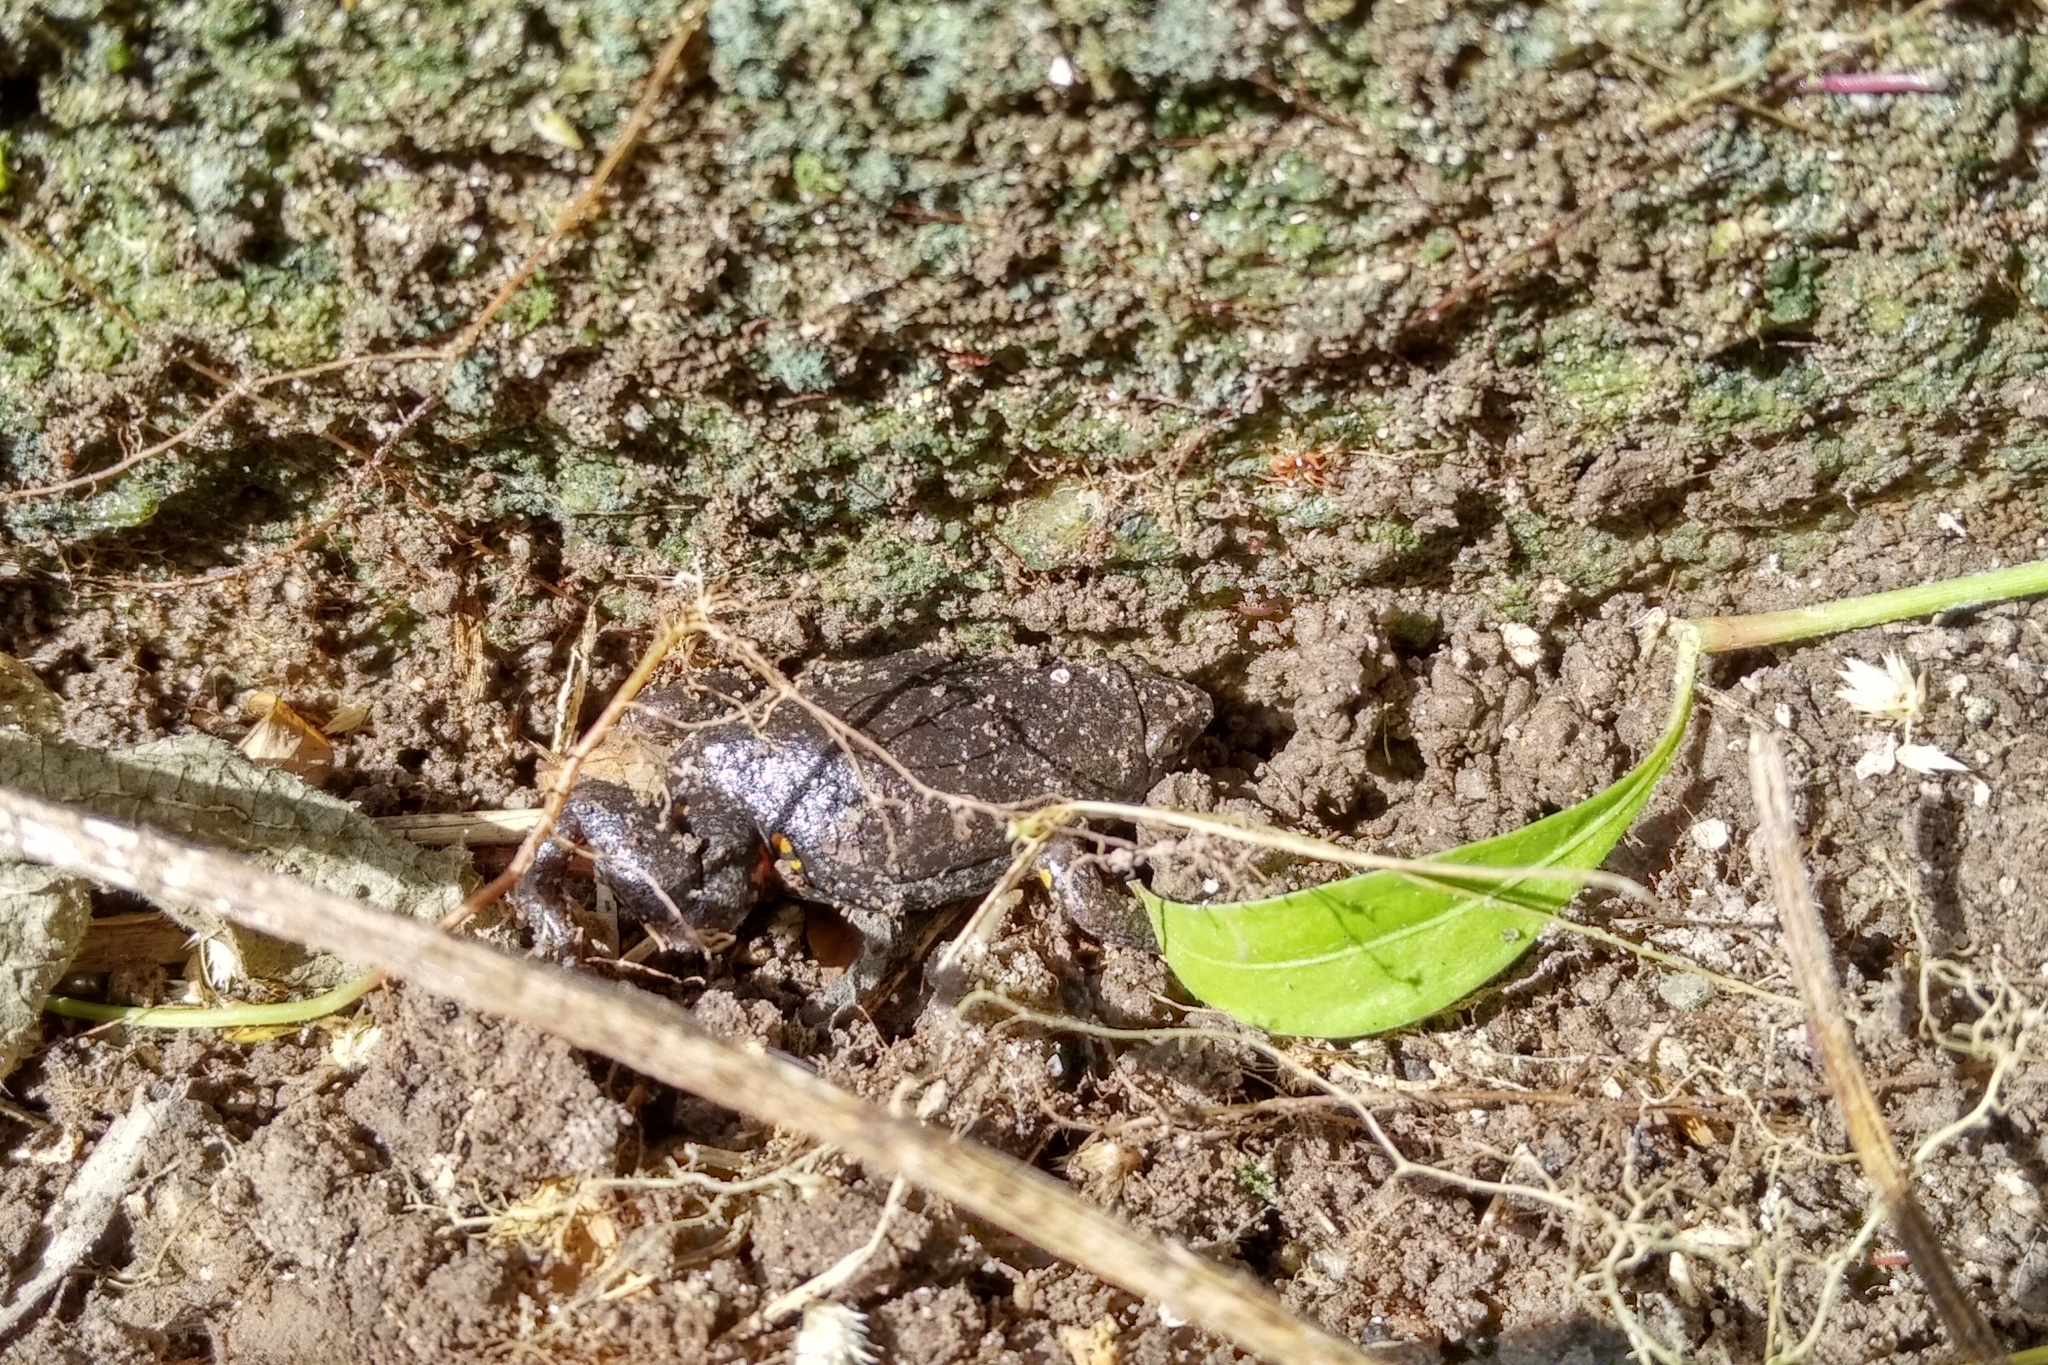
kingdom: Animalia
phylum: Chordata
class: Amphibia
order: Anura
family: Microhylidae
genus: Elachistocleis
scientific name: Elachistocleis surinamensis
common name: Surinam oval frog
